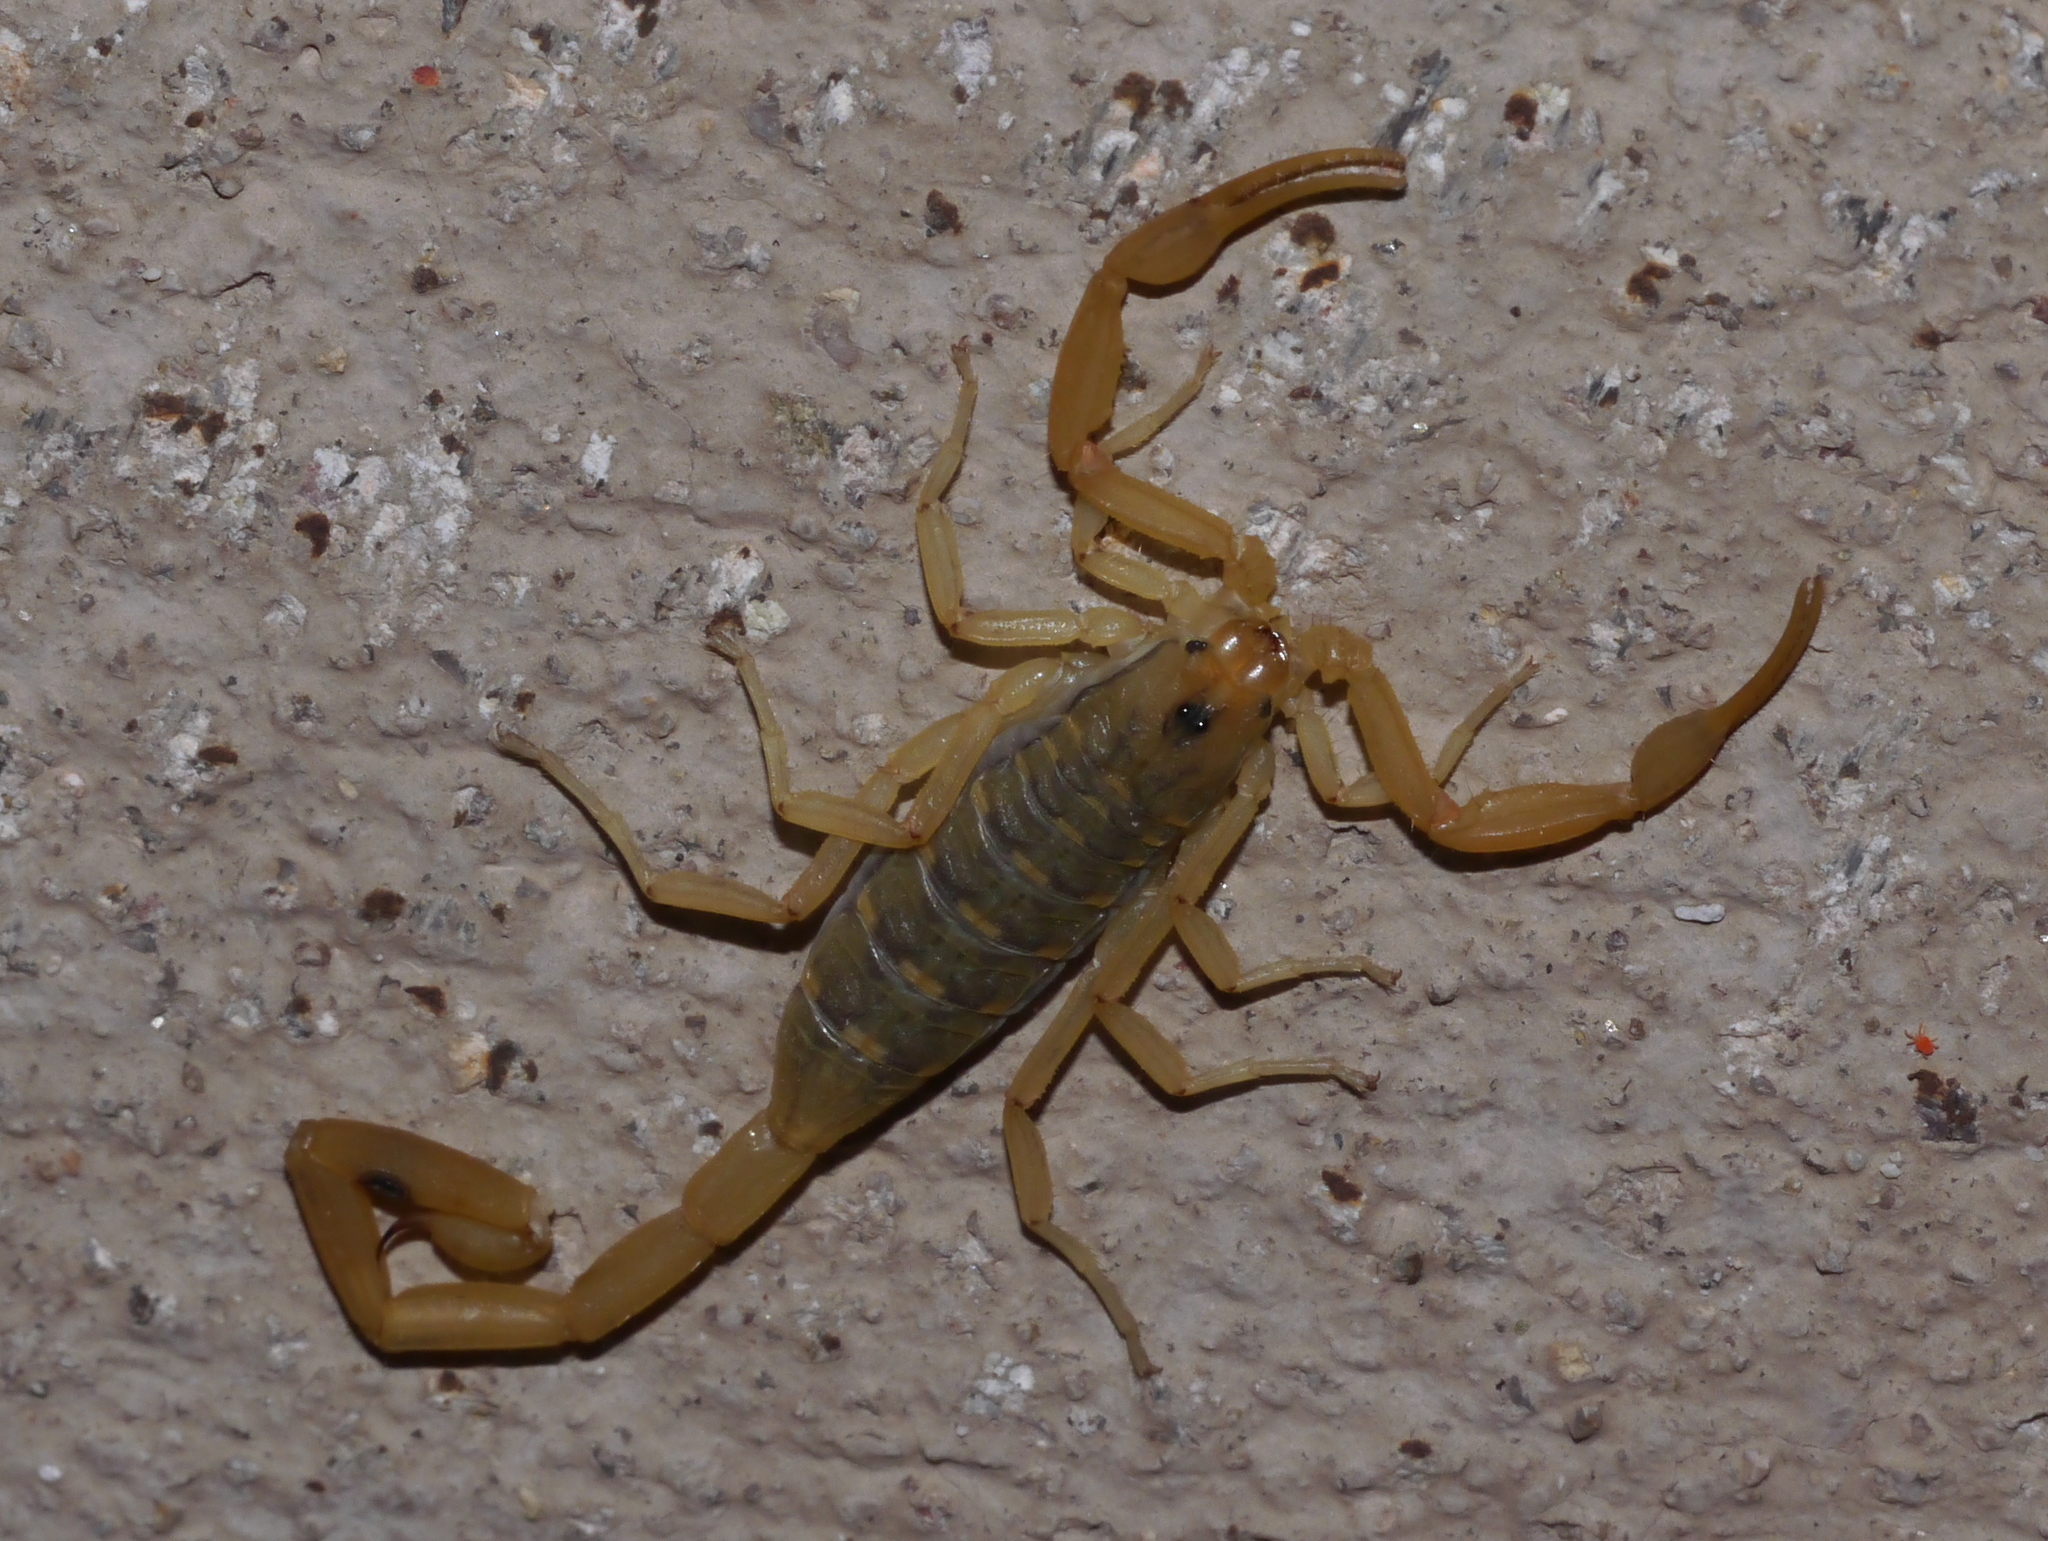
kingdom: Animalia
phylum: Arthropoda
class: Arachnida
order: Scorpiones
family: Buthidae
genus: Centruroides
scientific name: Centruroides sculpturatus
